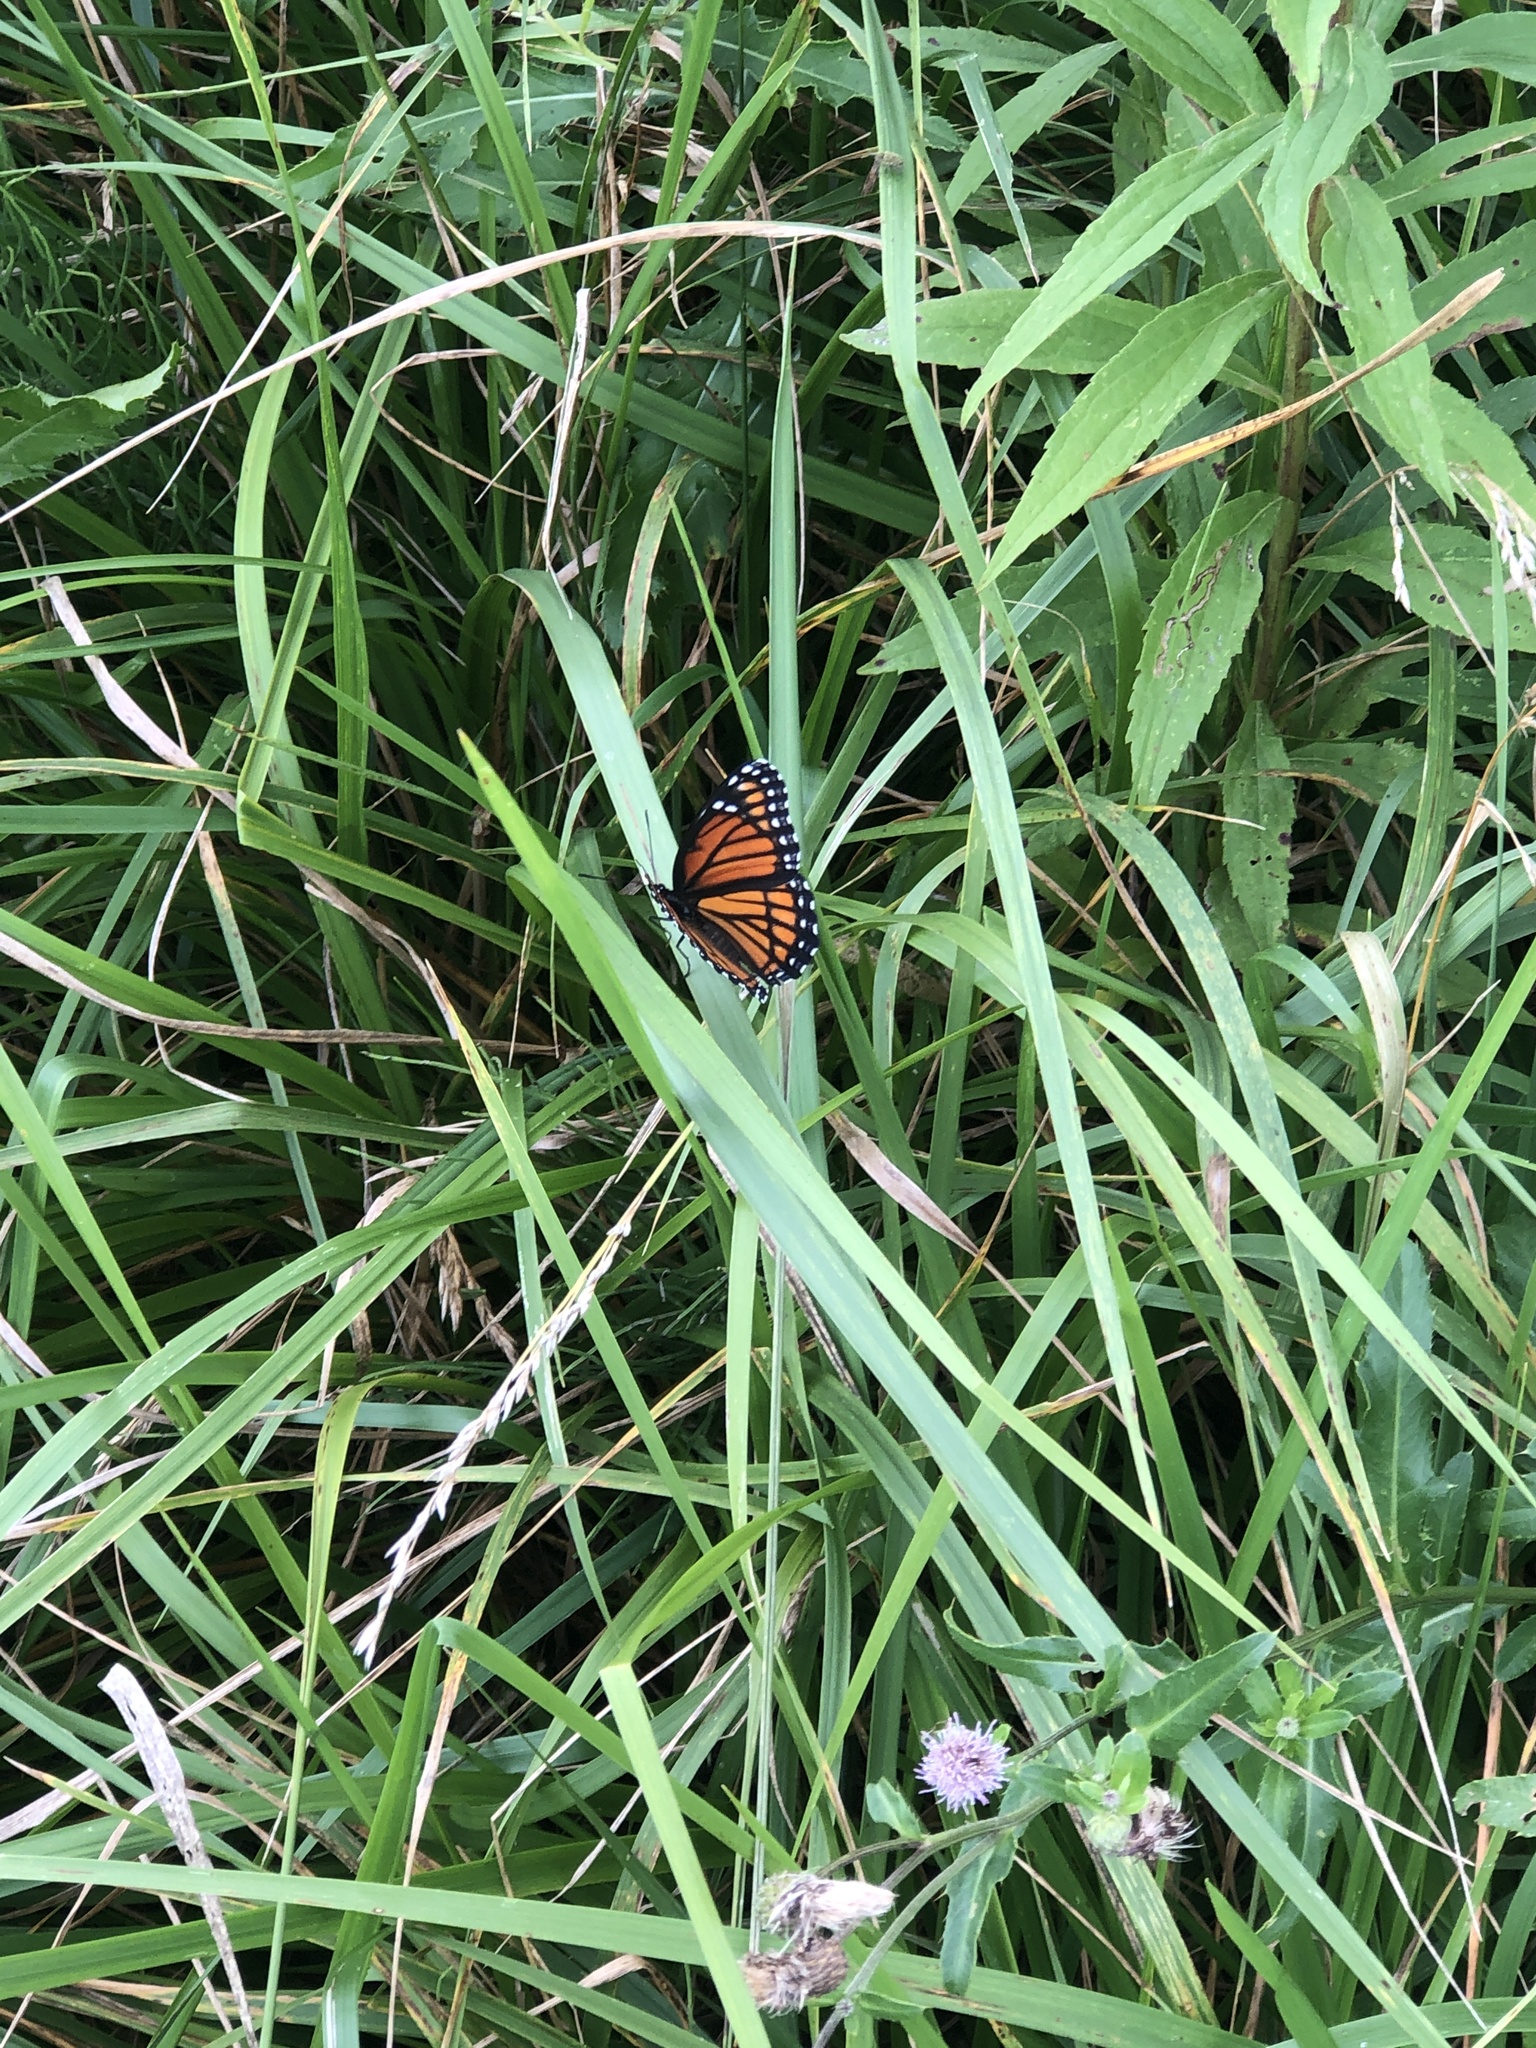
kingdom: Animalia
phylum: Arthropoda
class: Insecta
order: Lepidoptera
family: Nymphalidae
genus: Limenitis
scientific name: Limenitis archippus
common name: Viceroy
